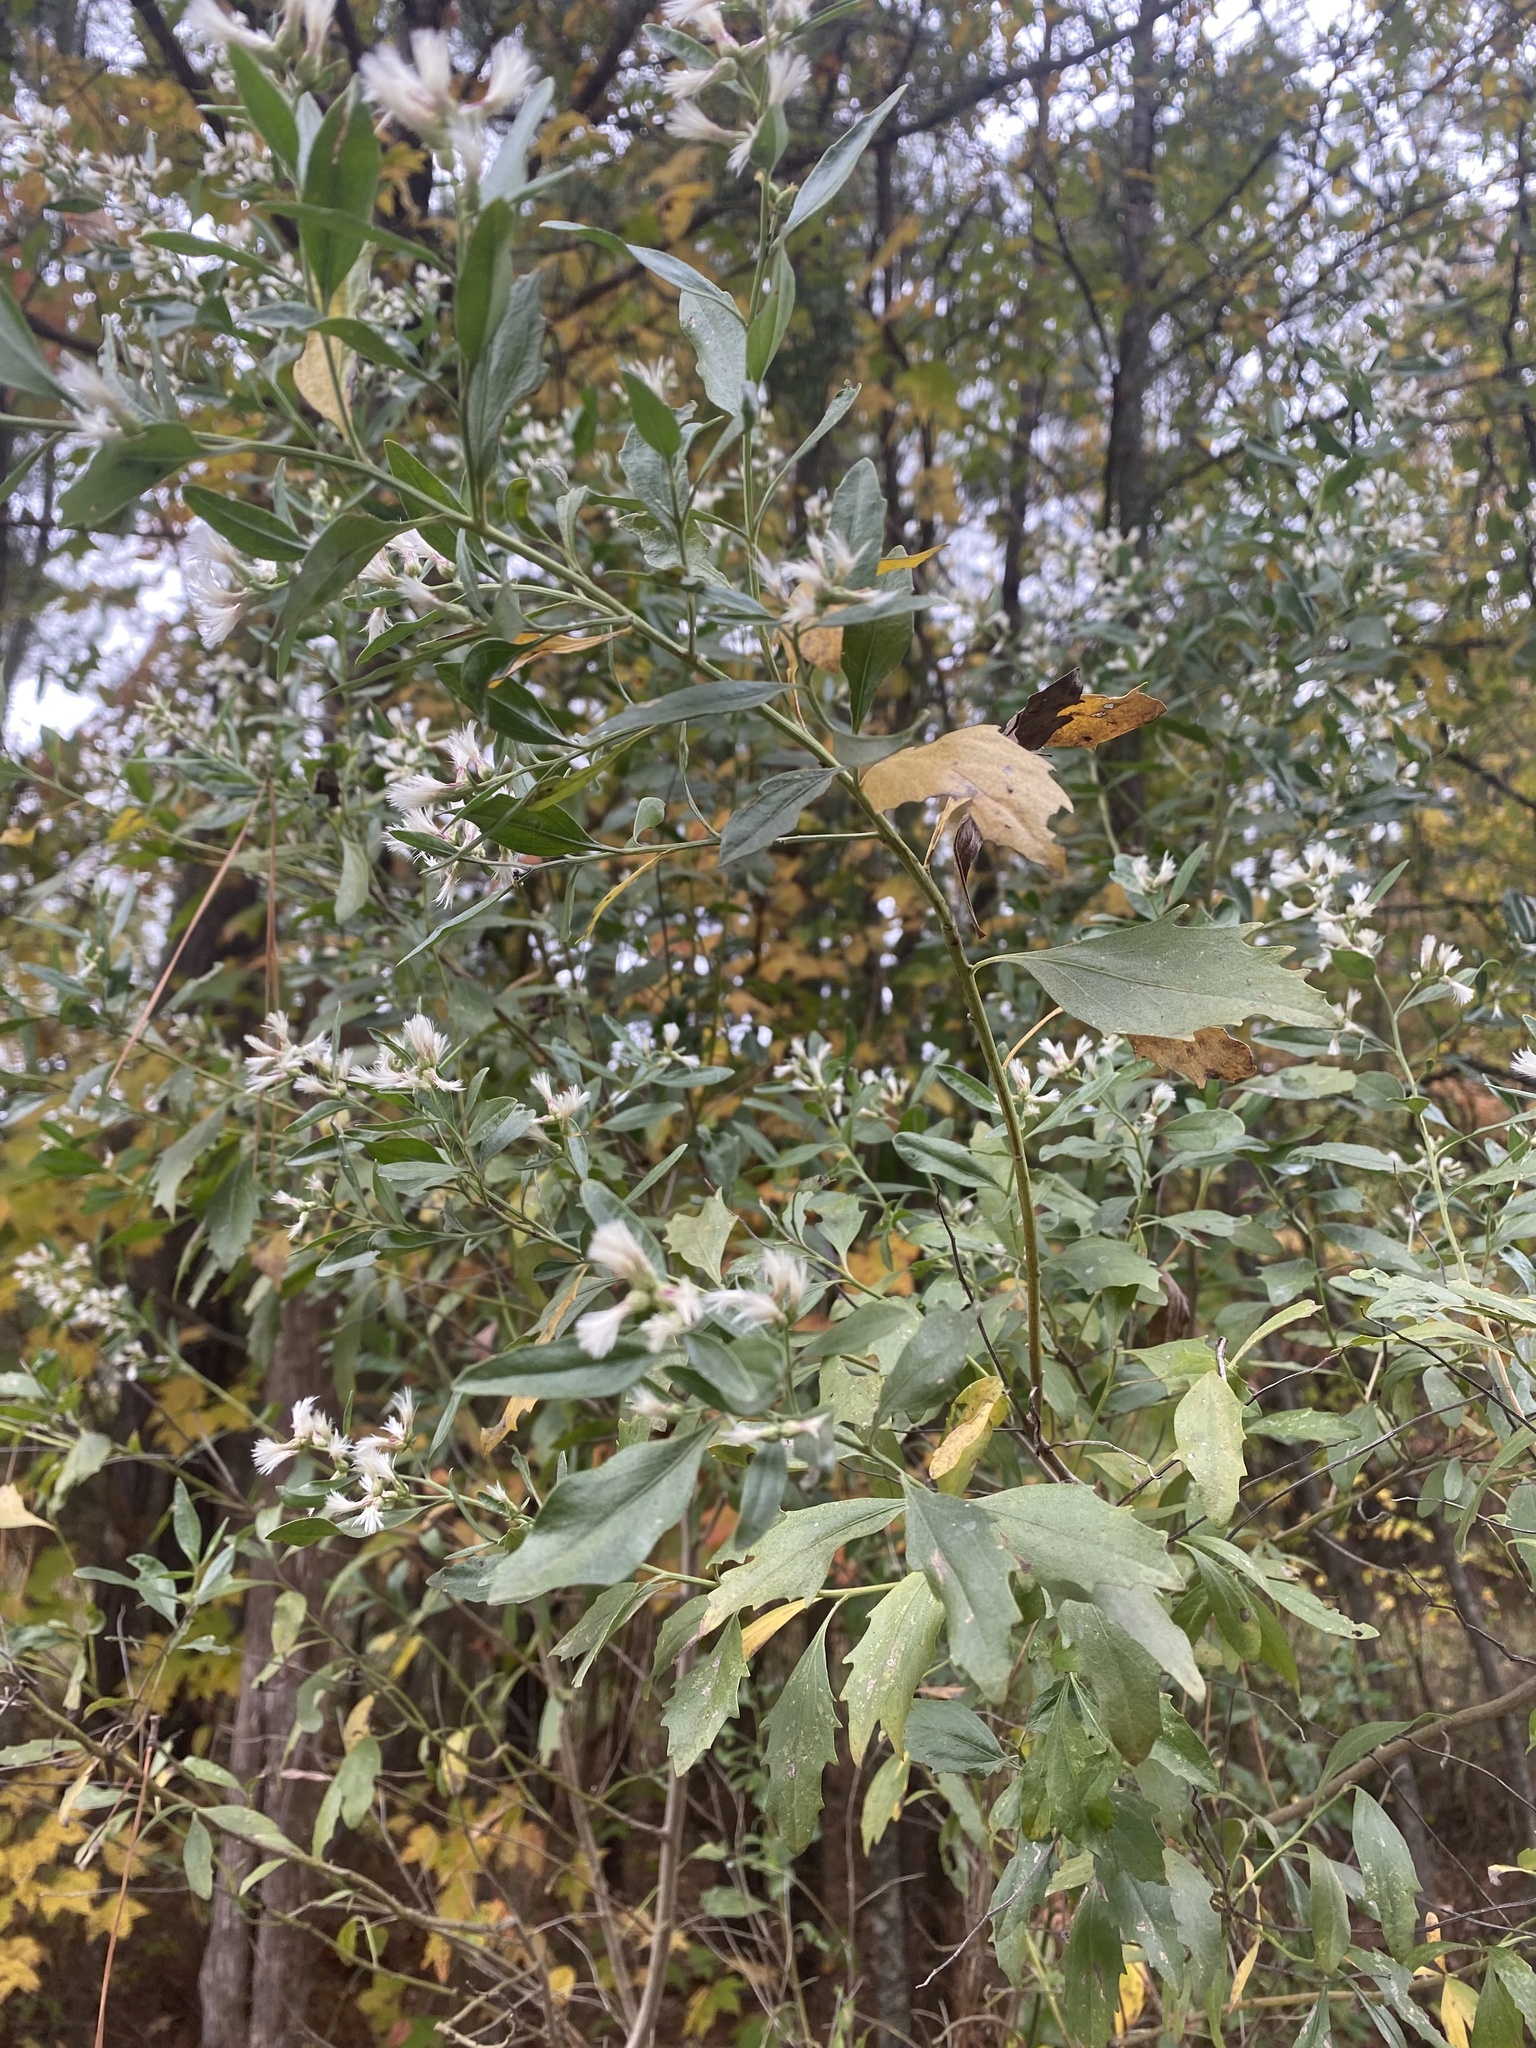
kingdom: Plantae
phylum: Tracheophyta
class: Magnoliopsida
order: Asterales
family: Asteraceae
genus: Baccharis
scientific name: Baccharis halimifolia
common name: Eastern baccharis
